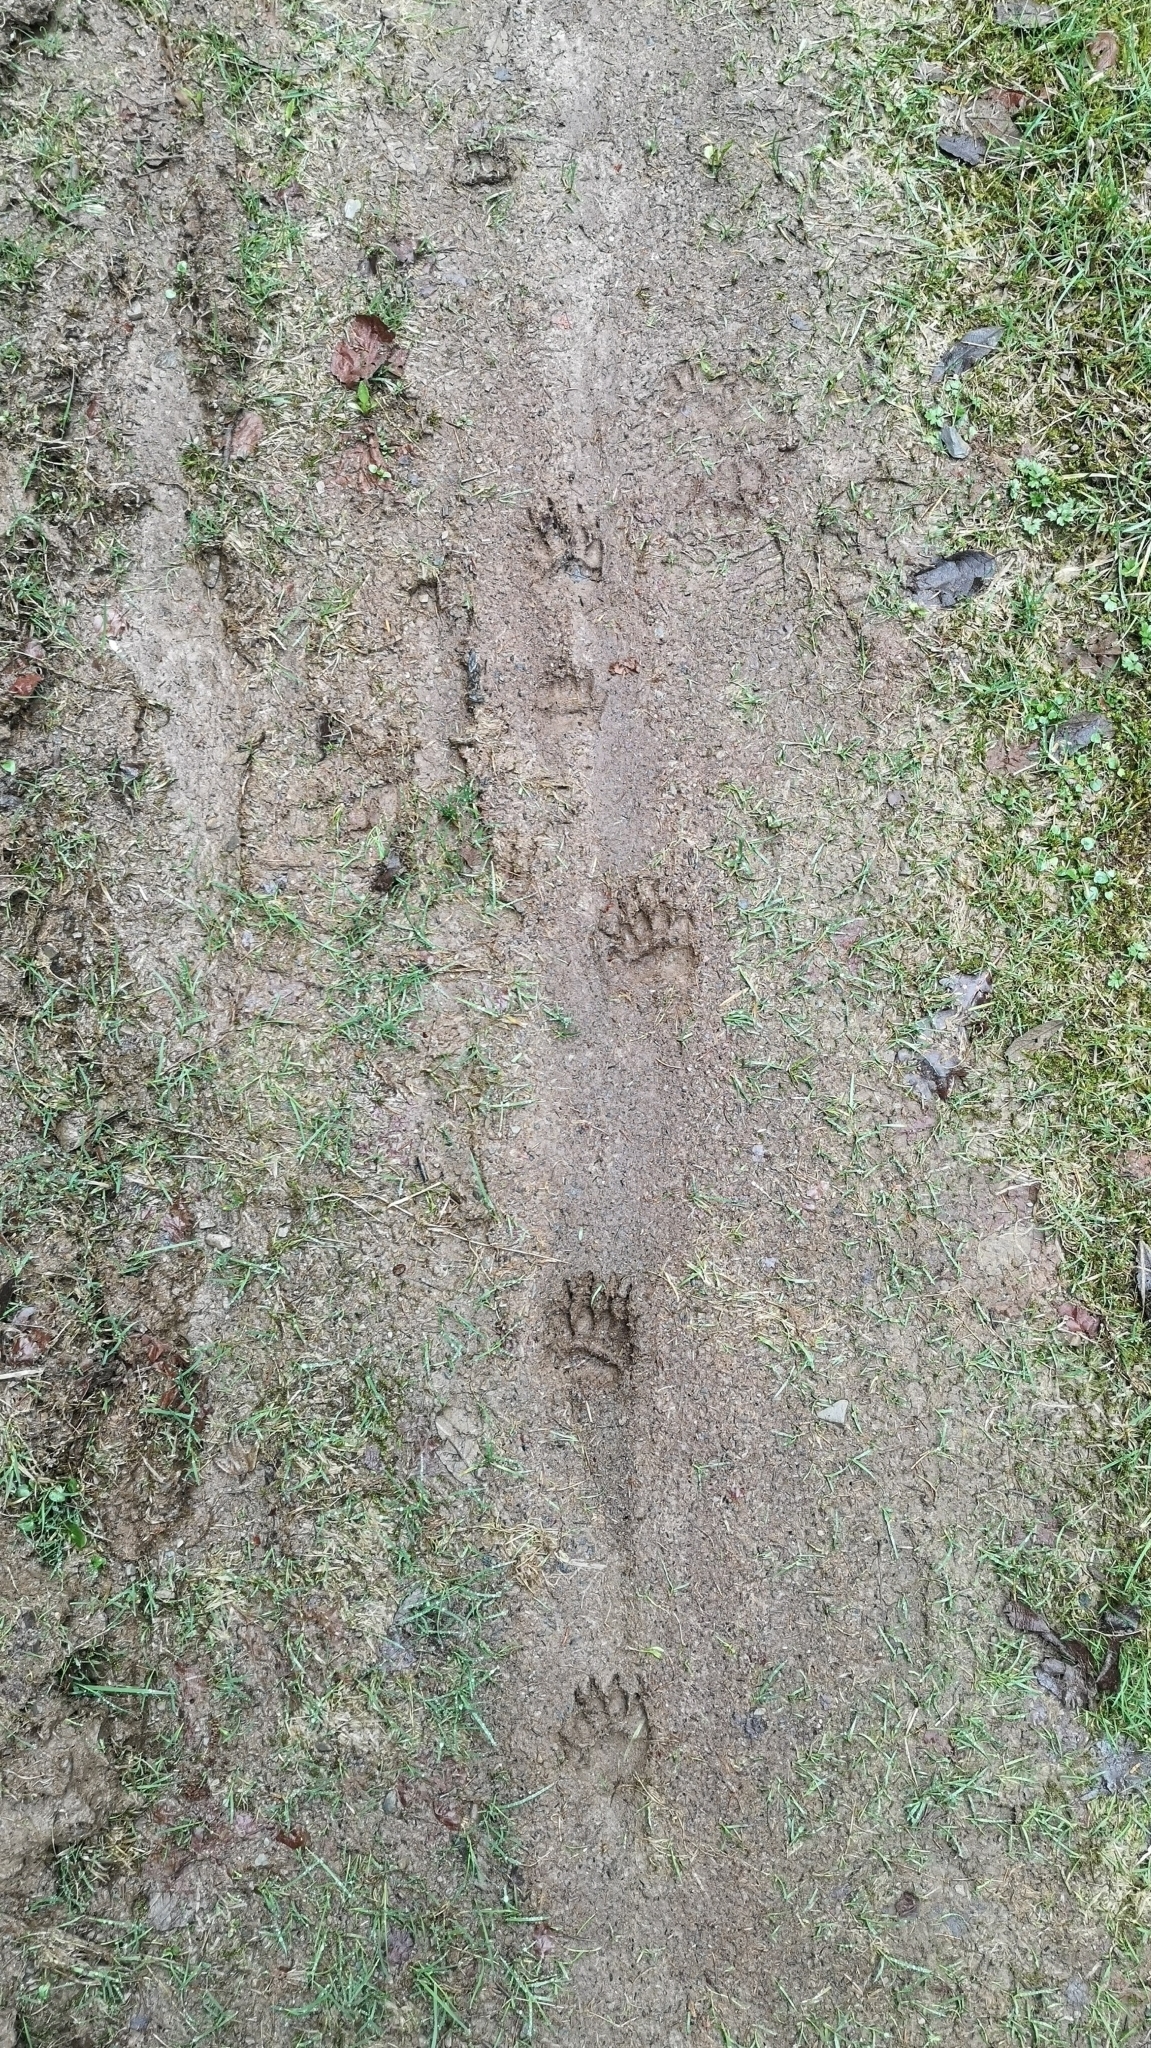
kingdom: Animalia
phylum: Chordata
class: Mammalia
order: Carnivora
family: Mustelidae
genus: Meles
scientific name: Meles meles
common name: Eurasian badger
